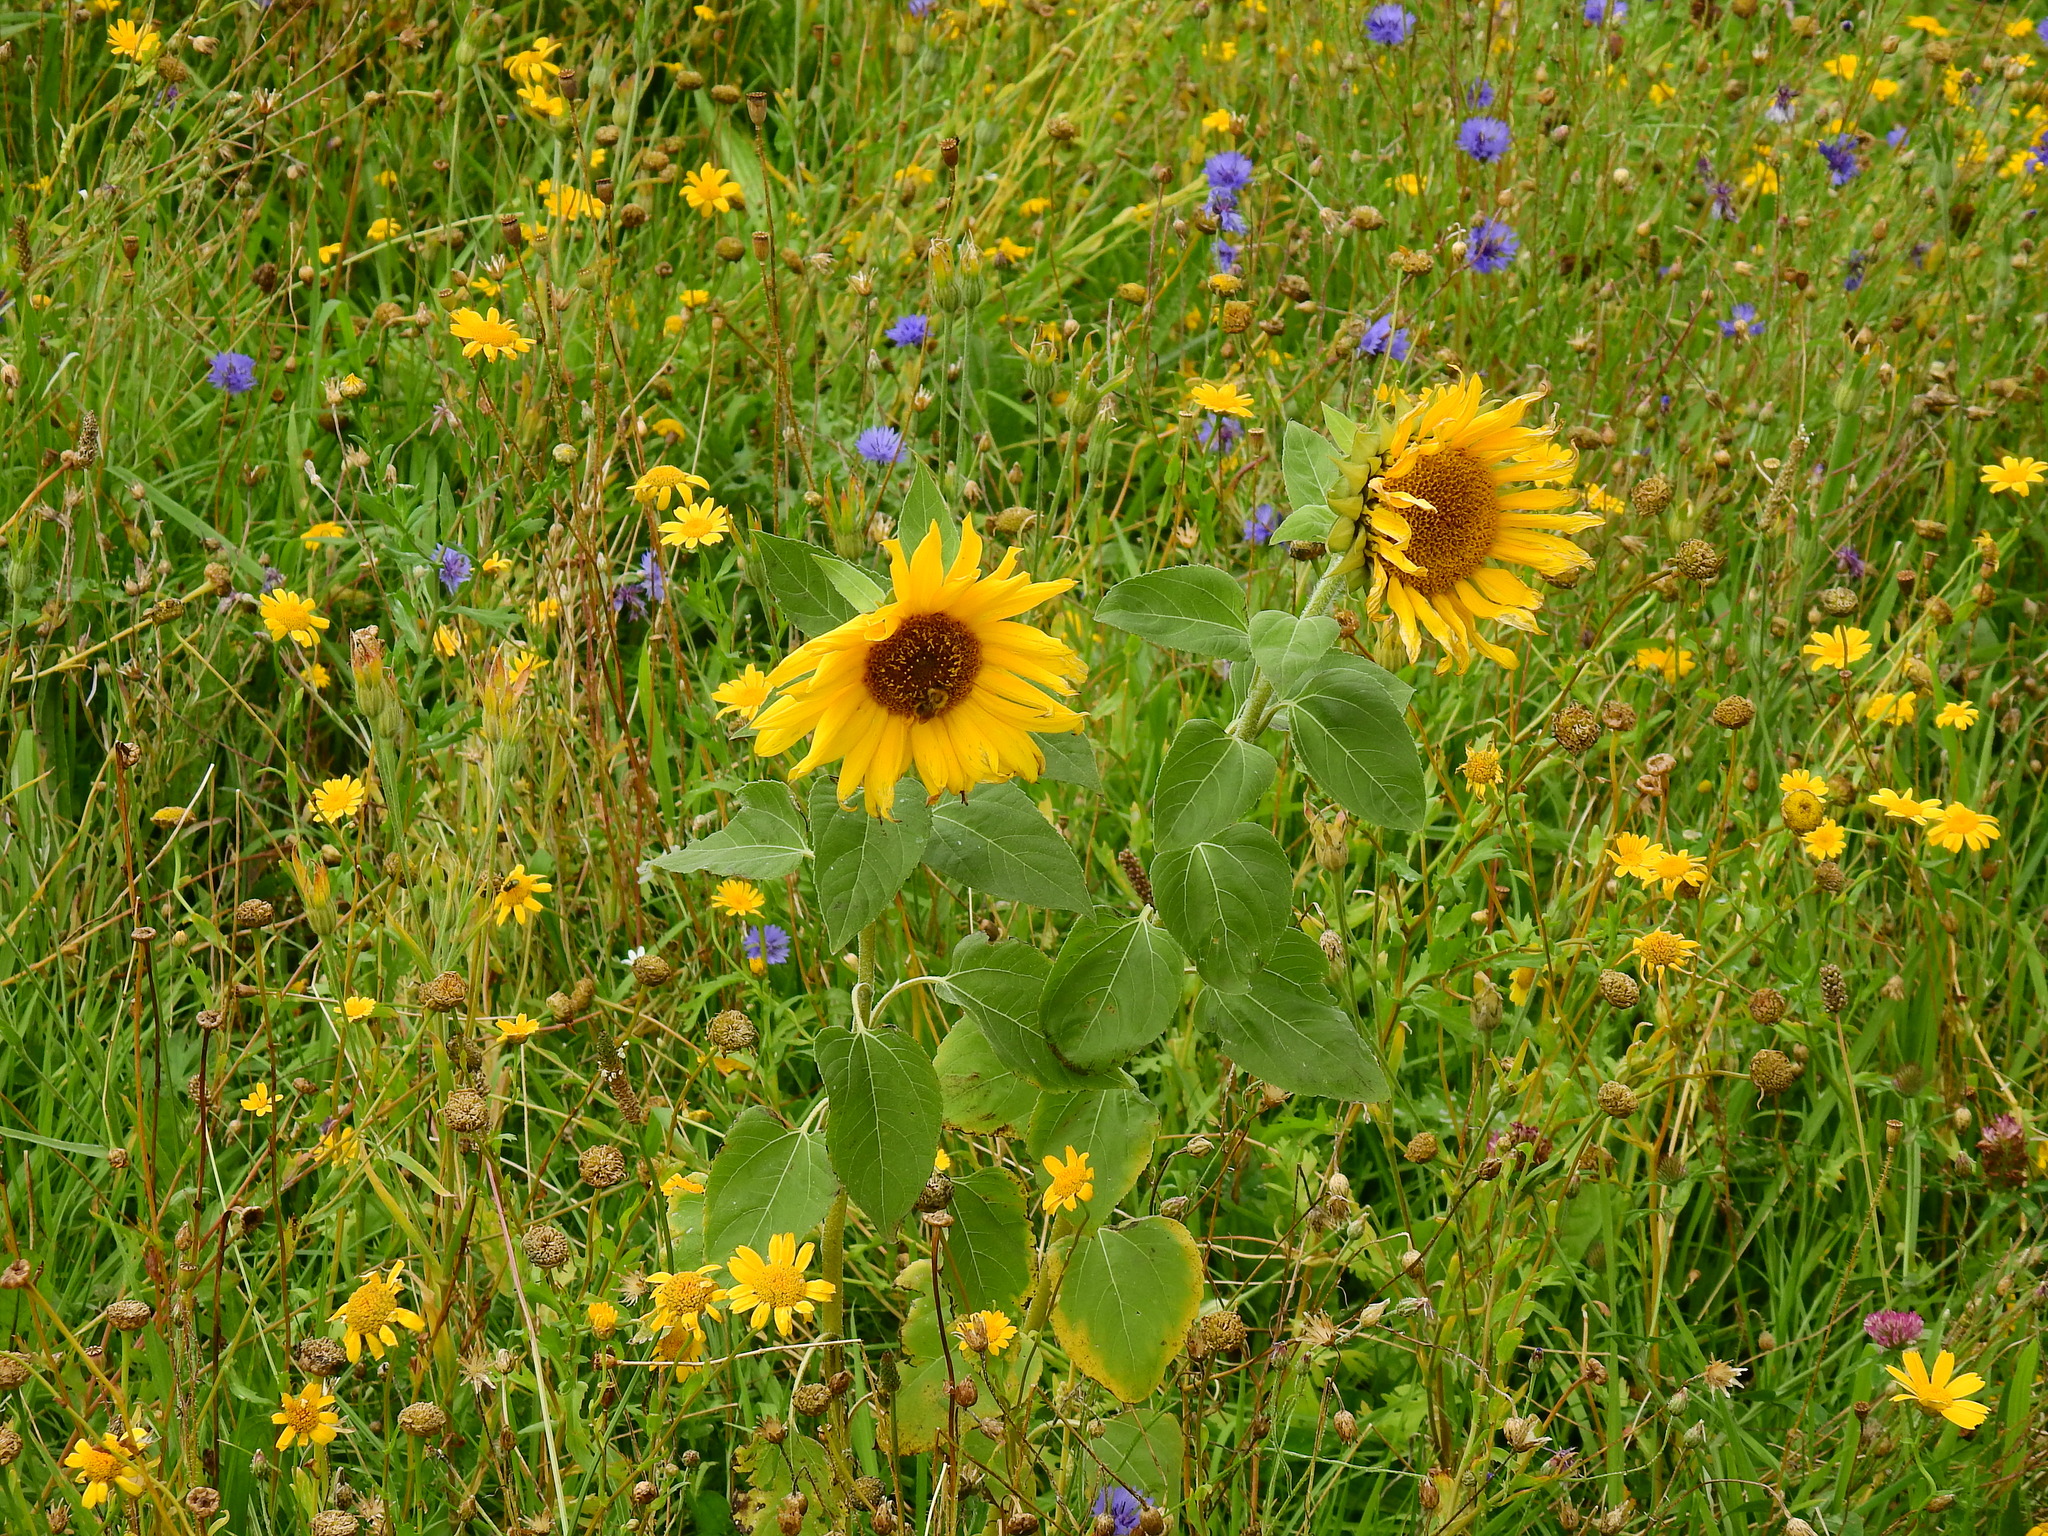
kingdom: Plantae
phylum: Tracheophyta
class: Magnoliopsida
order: Asterales
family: Asteraceae
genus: Helianthus
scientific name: Helianthus annuus
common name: Sunflower
